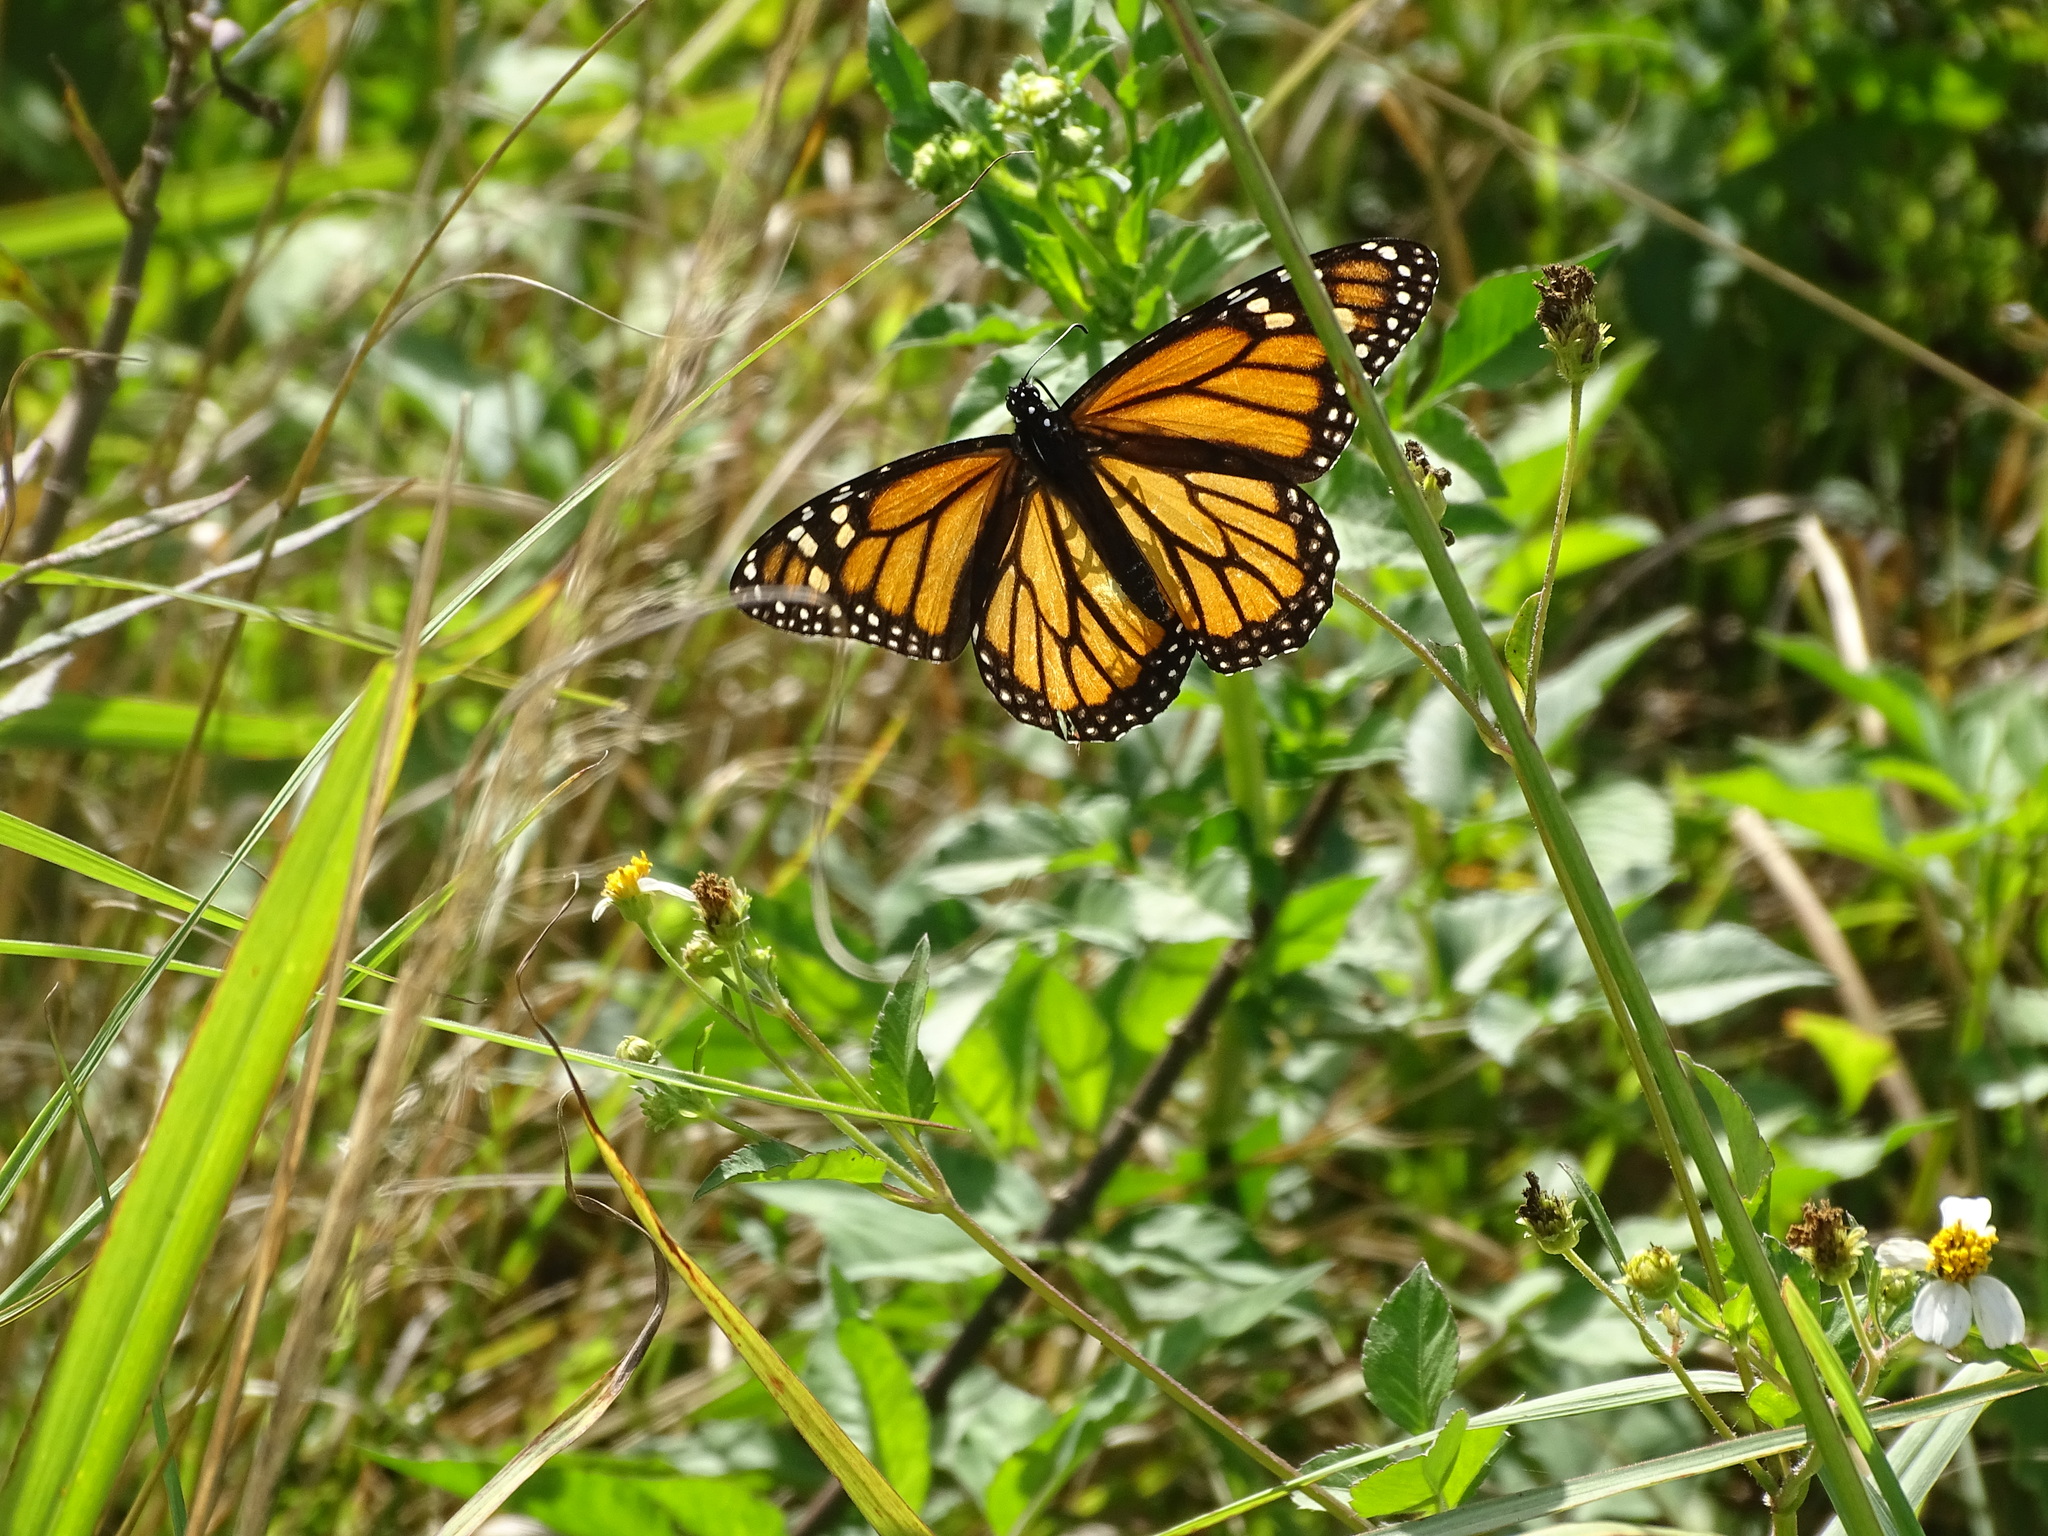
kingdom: Animalia
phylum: Arthropoda
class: Insecta
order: Lepidoptera
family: Nymphalidae
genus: Danaus
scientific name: Danaus plexippus
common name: Monarch
